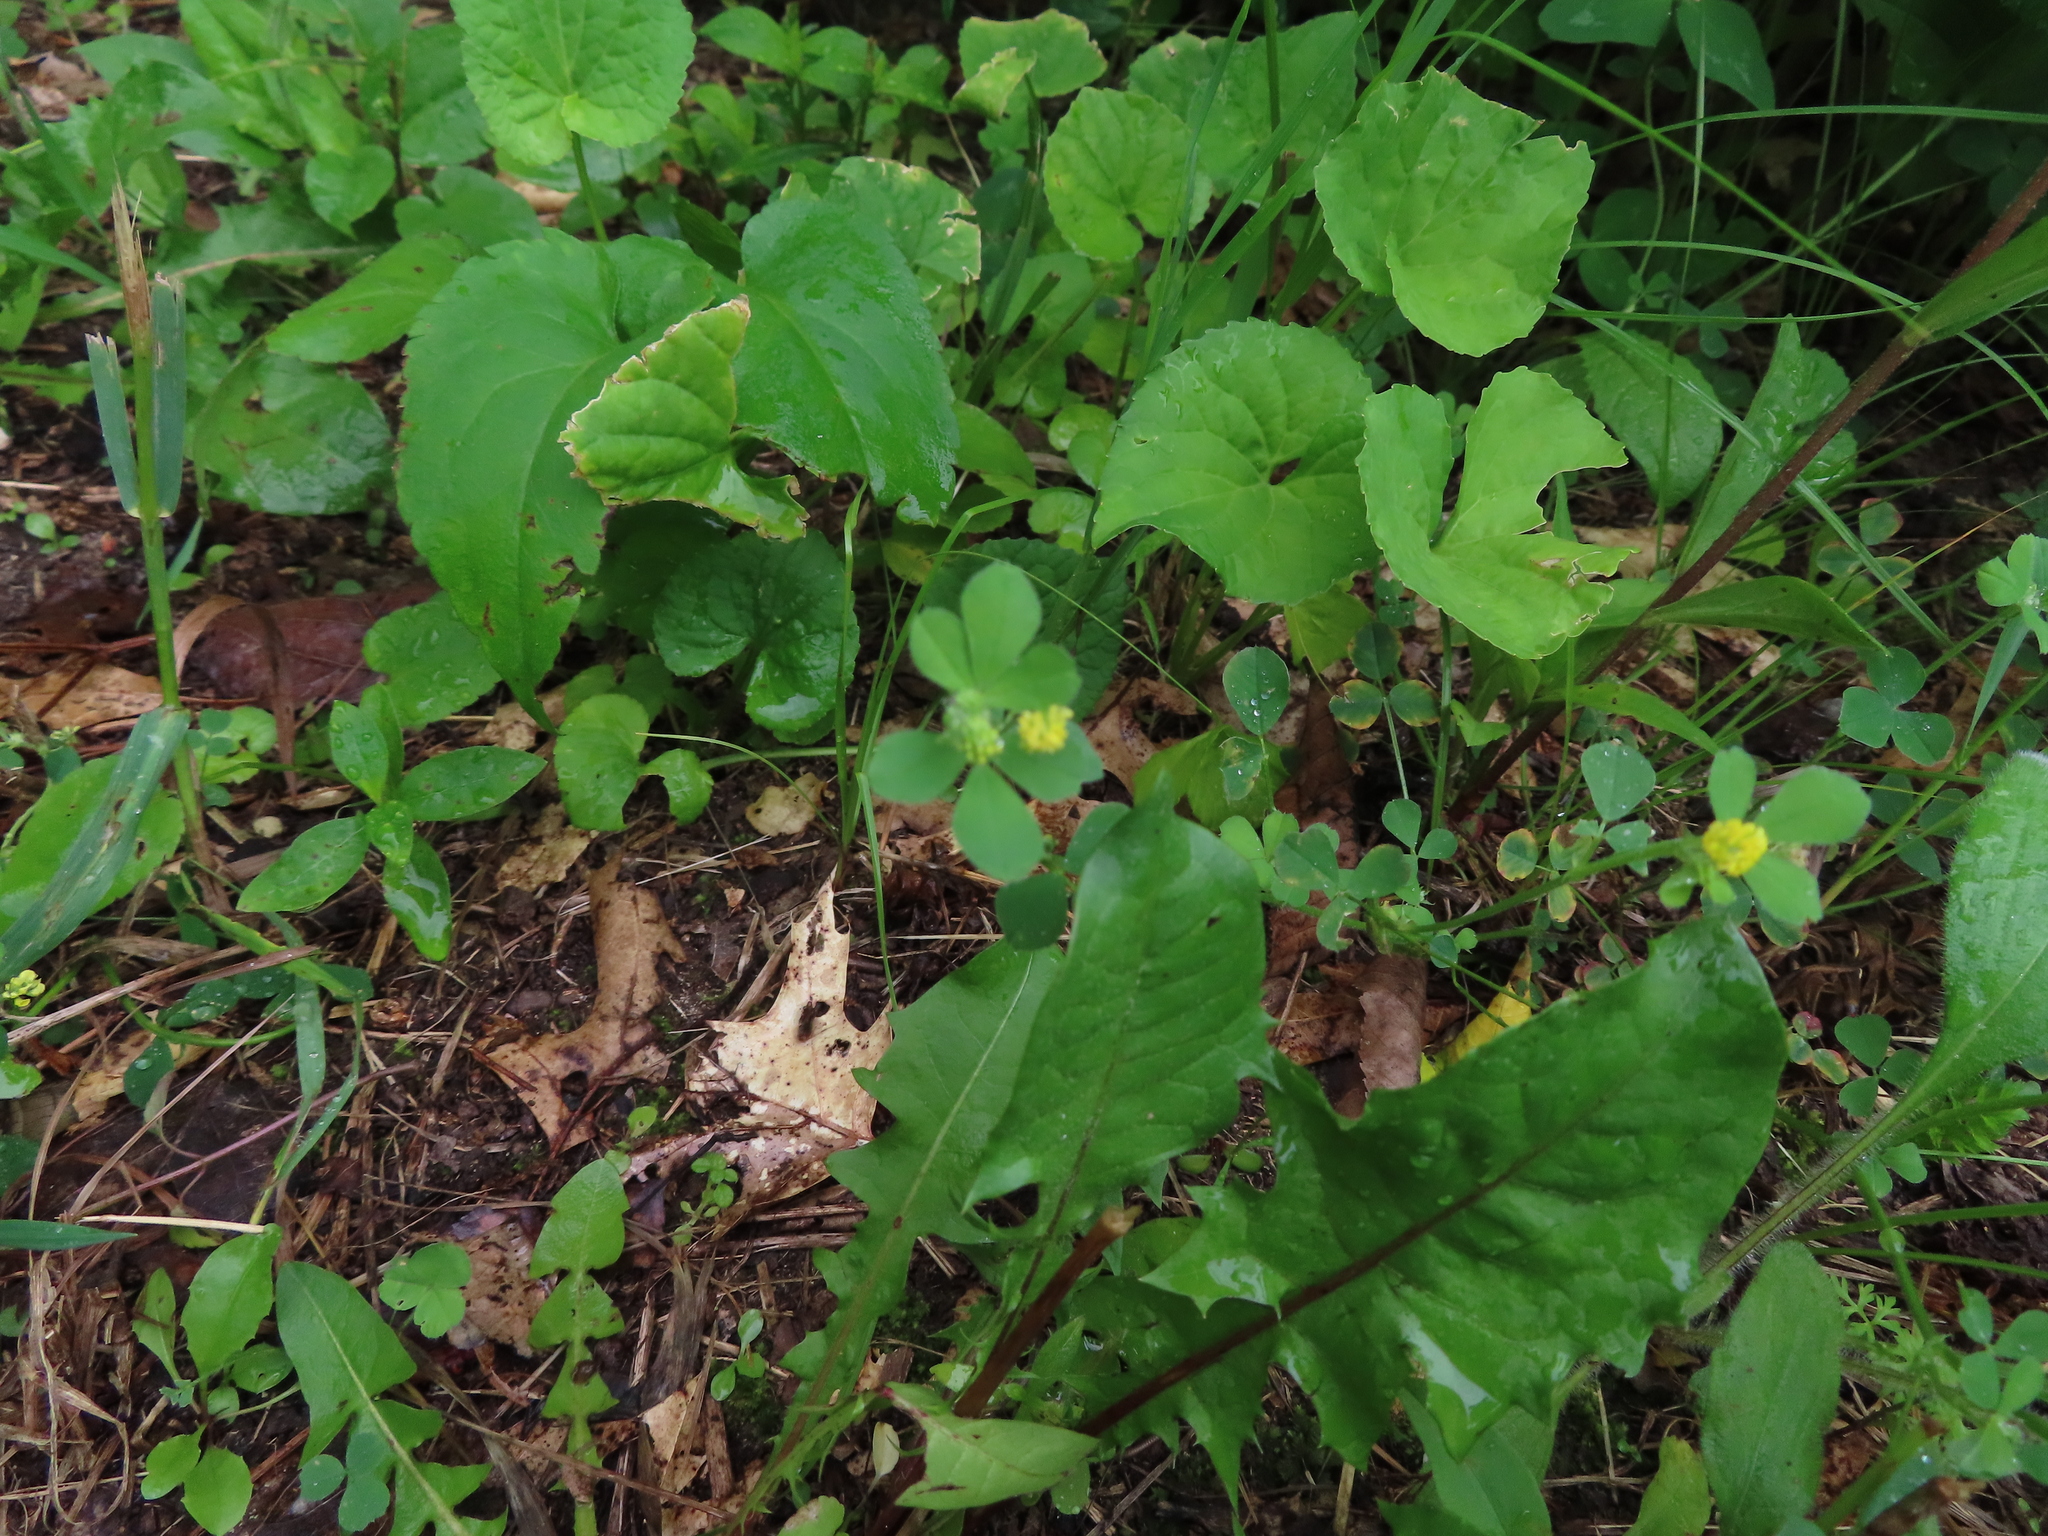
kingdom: Plantae
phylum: Tracheophyta
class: Magnoliopsida
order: Fabales
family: Fabaceae
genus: Medicago
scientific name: Medicago lupulina
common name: Black medick
